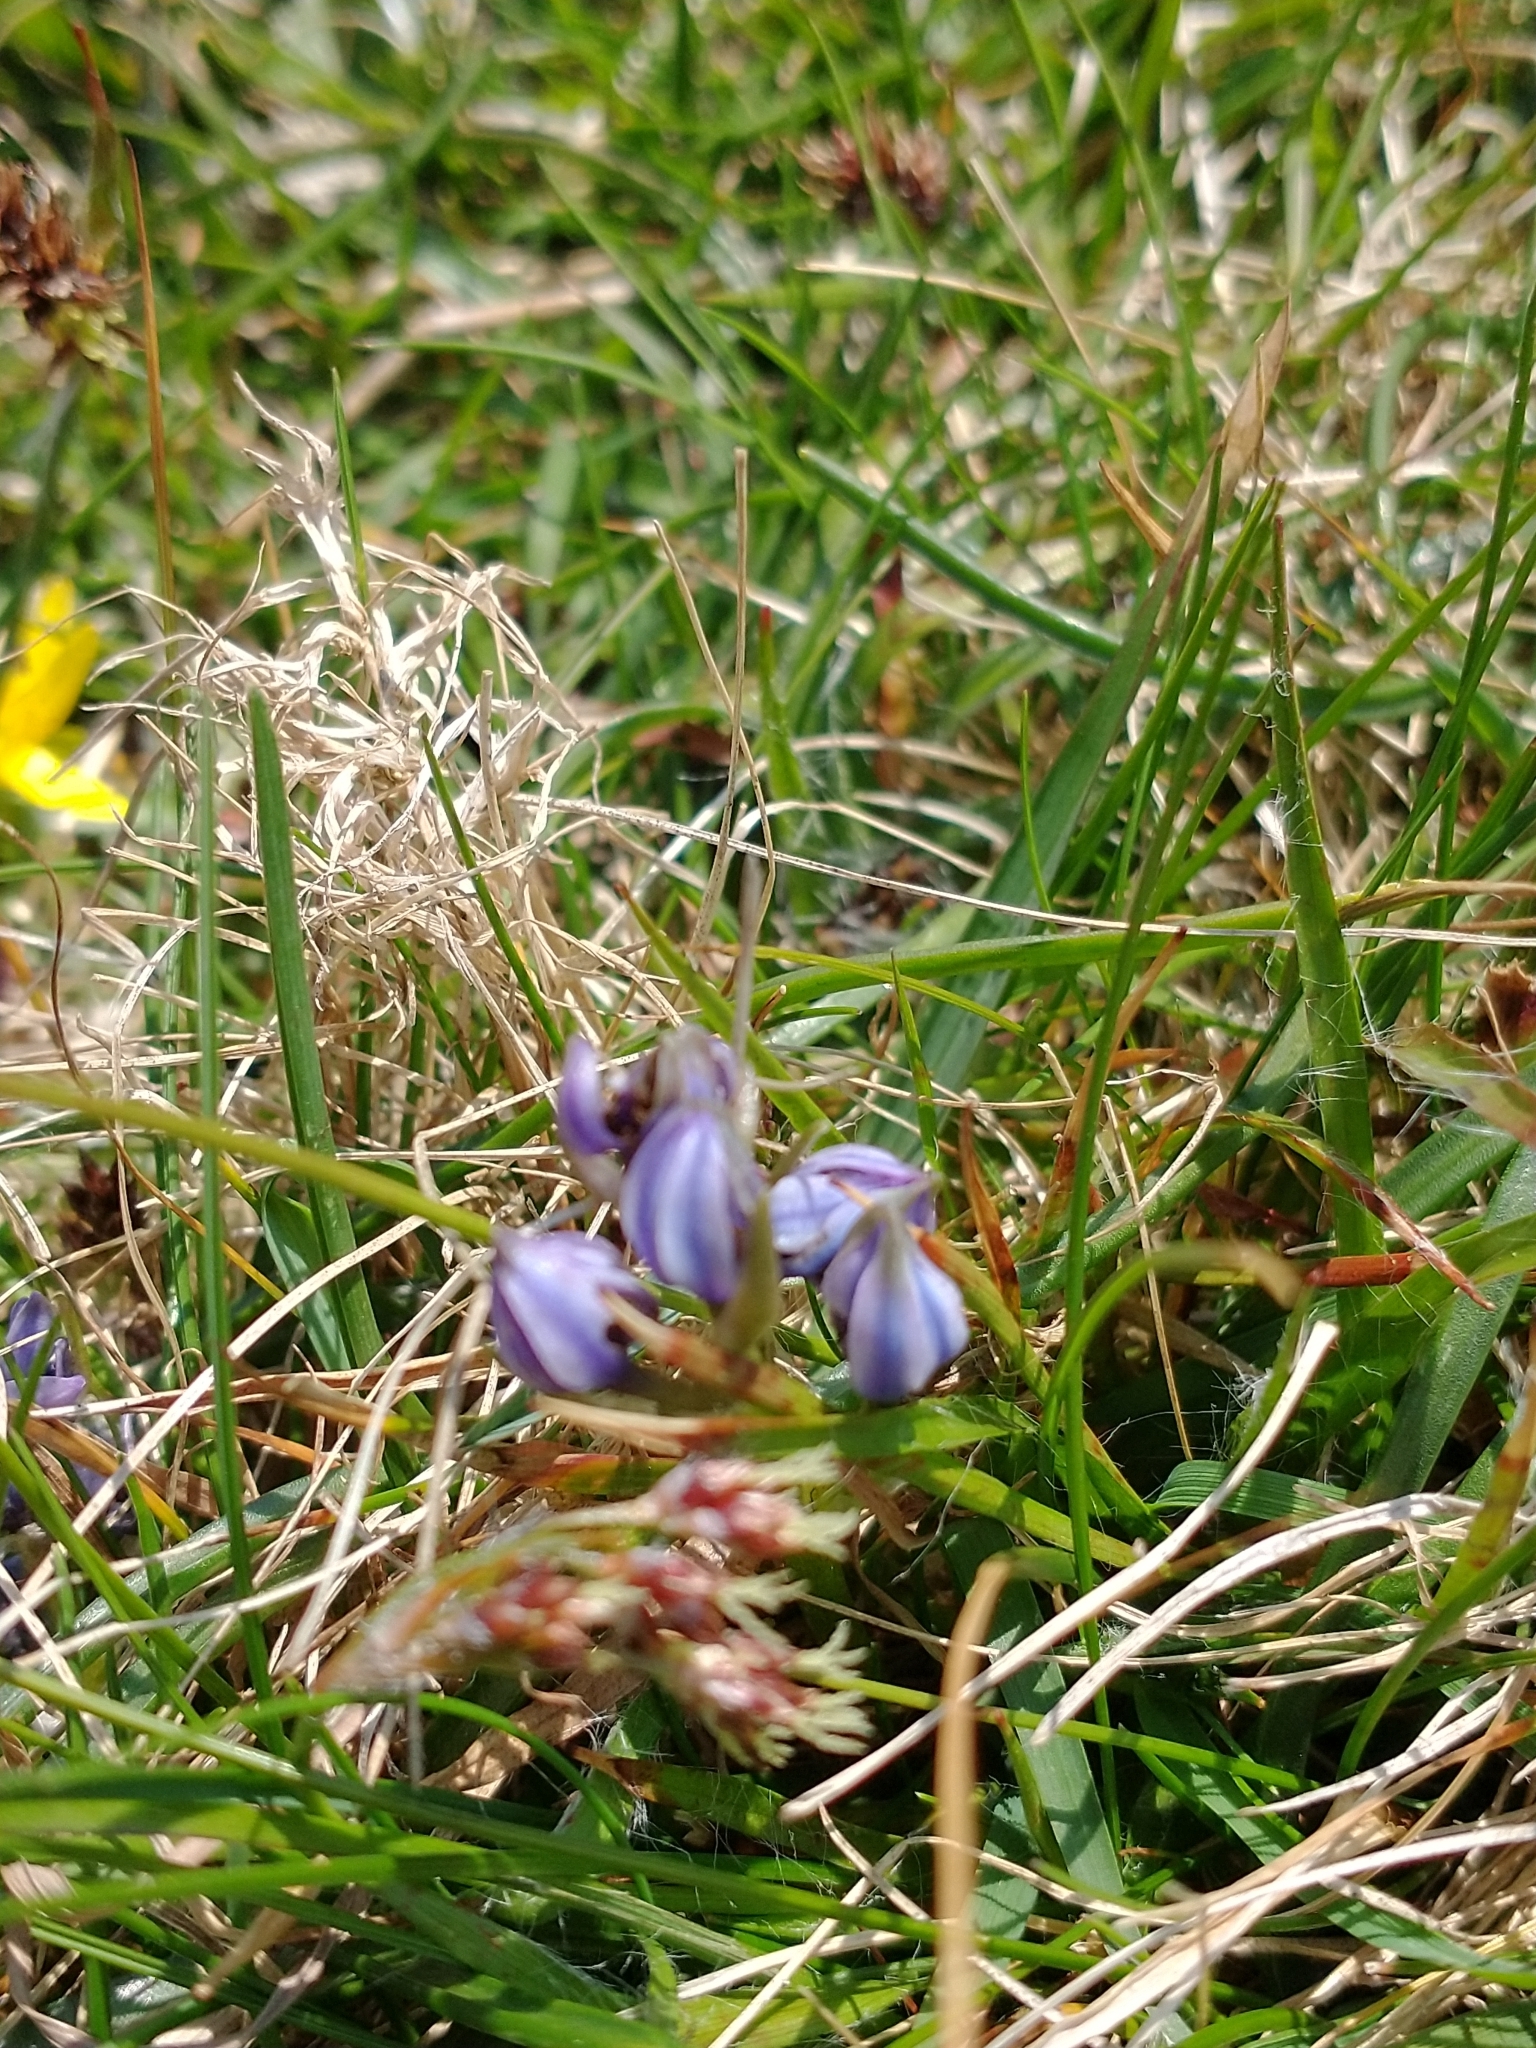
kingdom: Plantae
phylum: Tracheophyta
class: Liliopsida
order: Asparagales
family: Asparagaceae
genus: Scilla
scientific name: Scilla verna
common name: Spring squill
